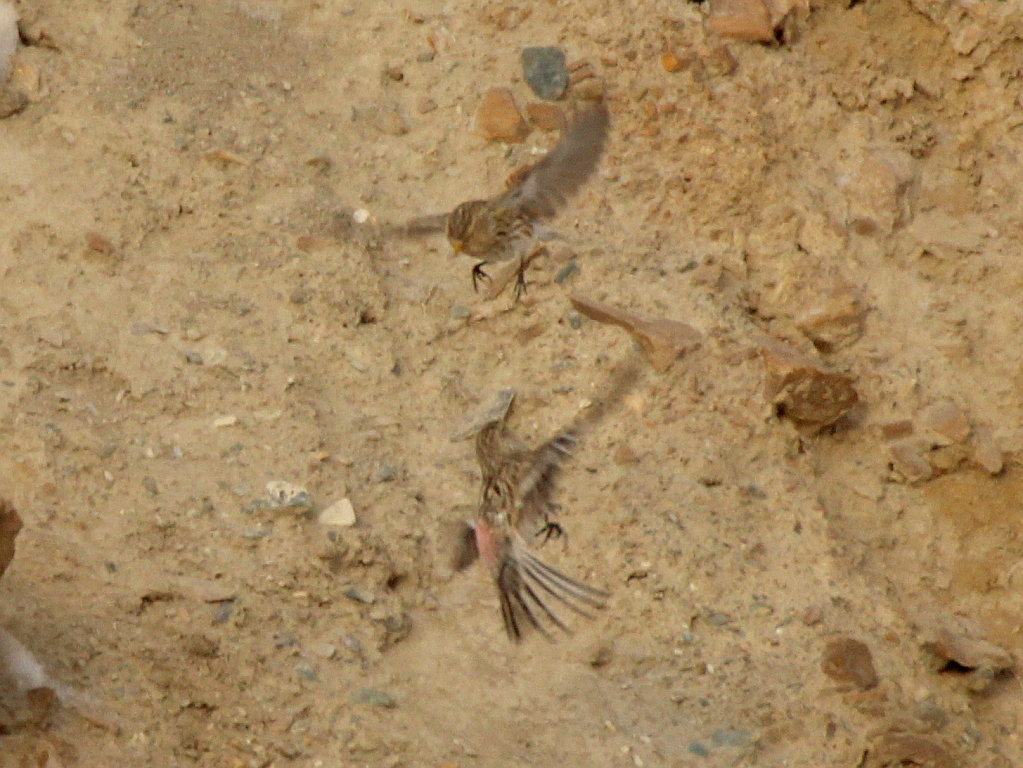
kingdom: Animalia
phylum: Chordata
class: Aves
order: Passeriformes
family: Fringillidae
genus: Linaria
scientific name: Linaria flavirostris
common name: Twite
